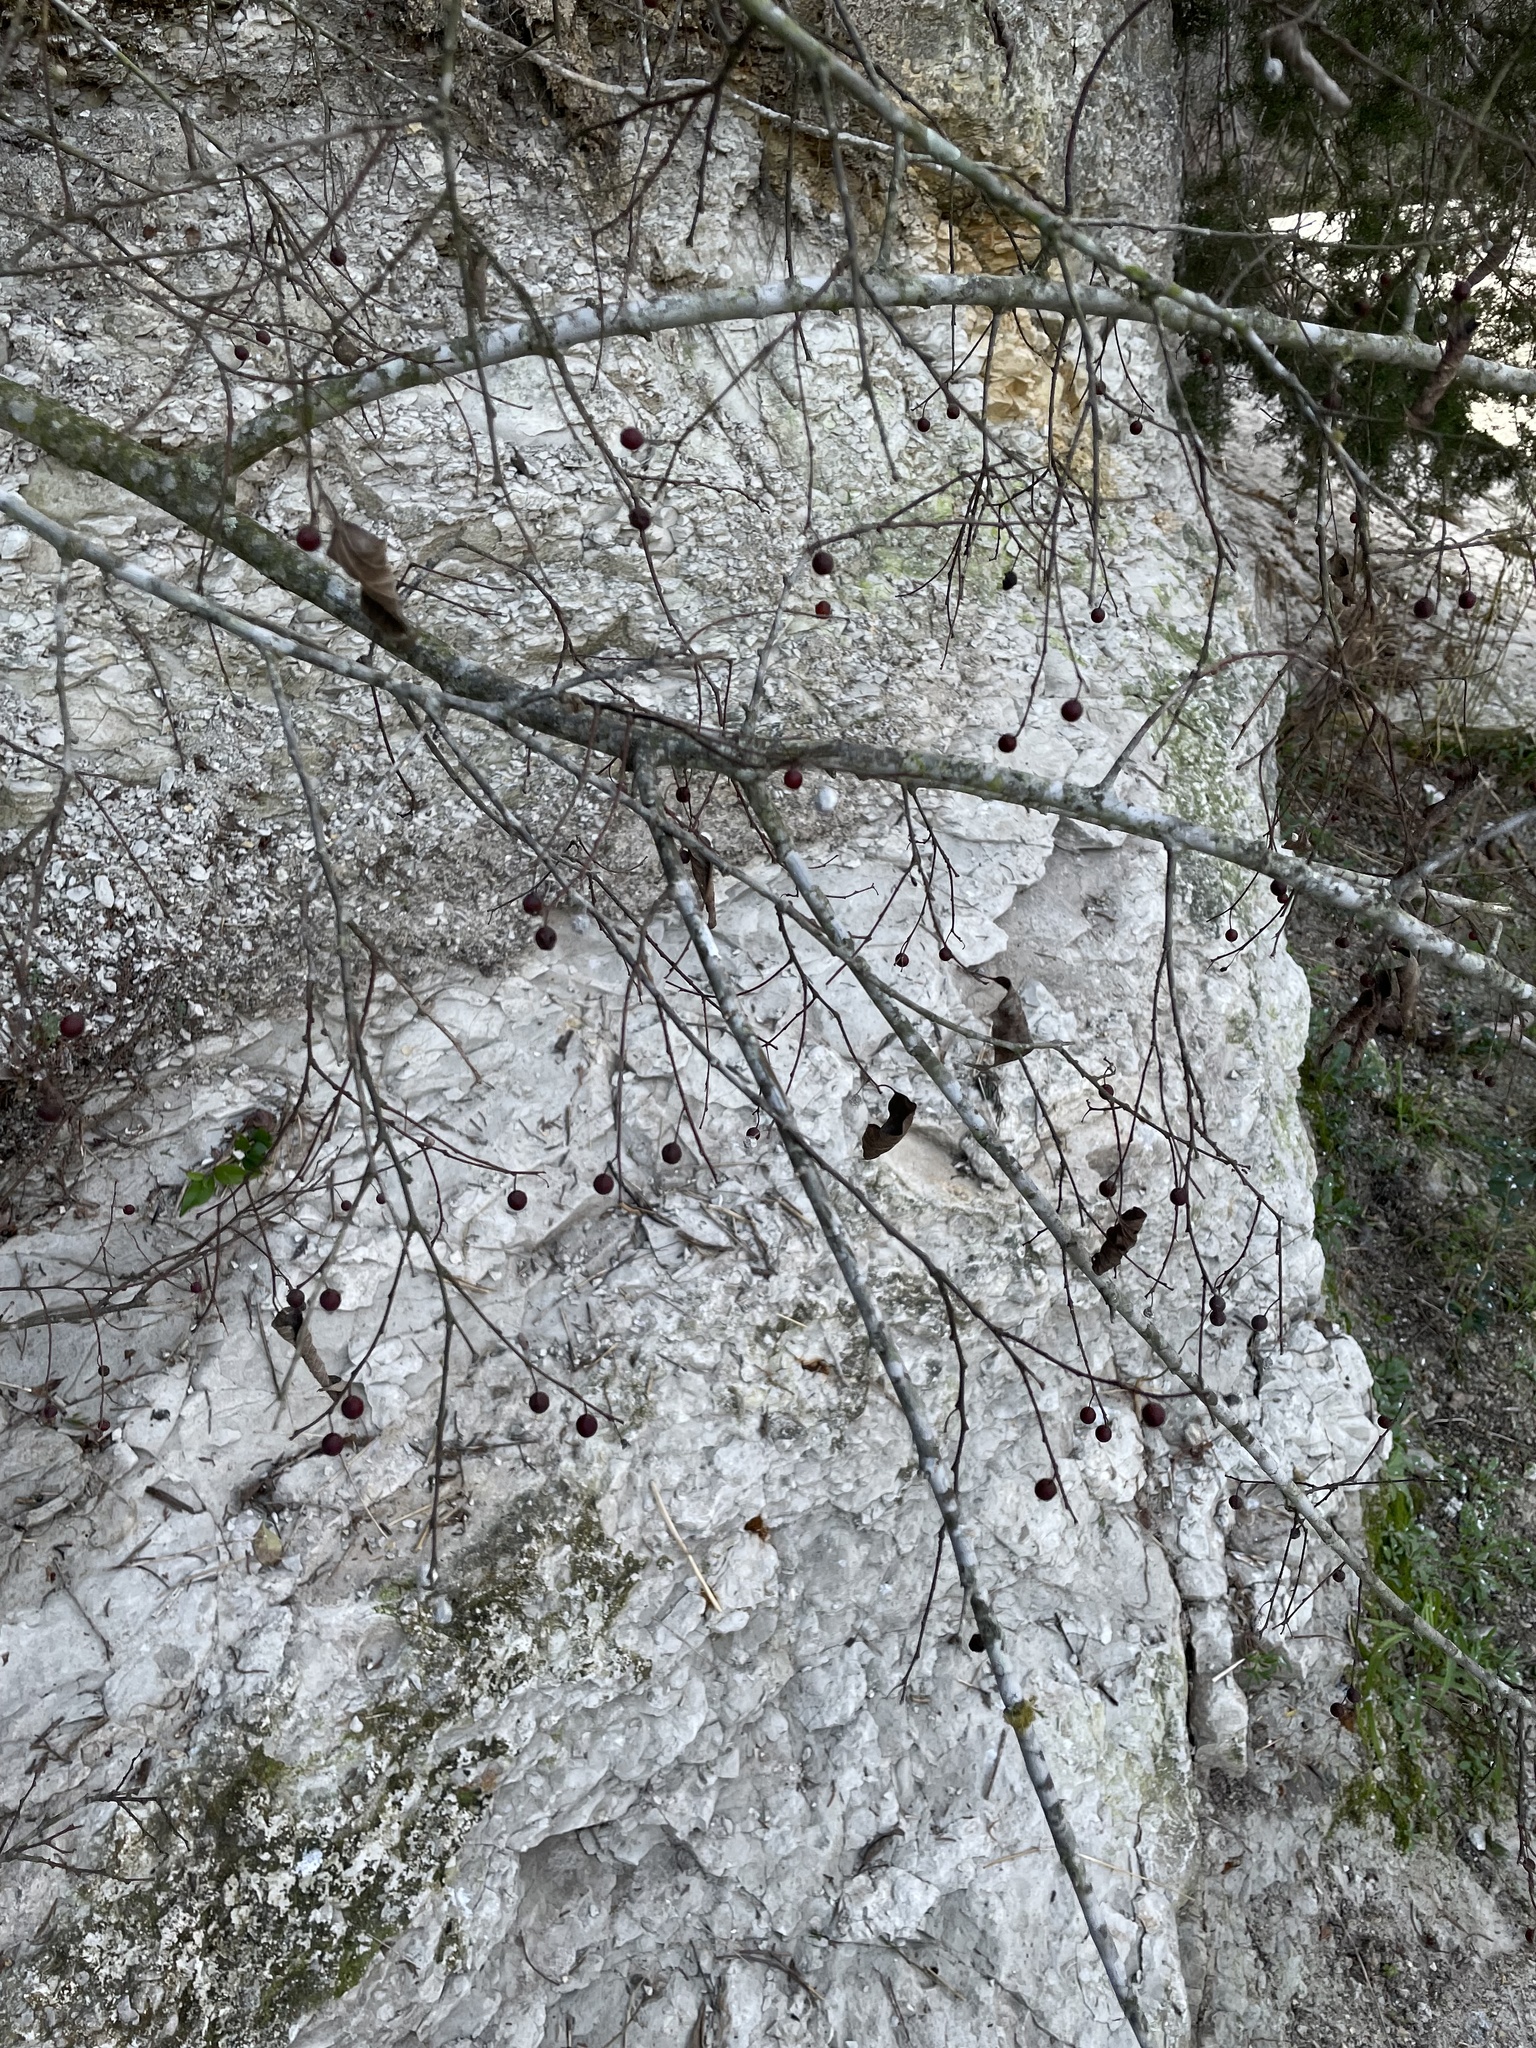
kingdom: Plantae
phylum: Tracheophyta
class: Magnoliopsida
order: Rosales
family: Cannabaceae
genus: Celtis
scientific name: Celtis laevigata
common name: Sugarberry
